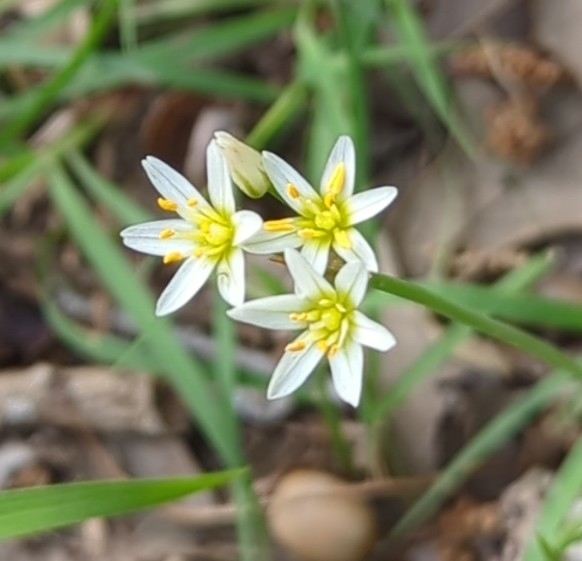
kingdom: Plantae
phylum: Tracheophyta
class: Liliopsida
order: Asparagales
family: Amaryllidaceae
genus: Nothoscordum
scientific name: Nothoscordum bivalve
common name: Crow-poison
